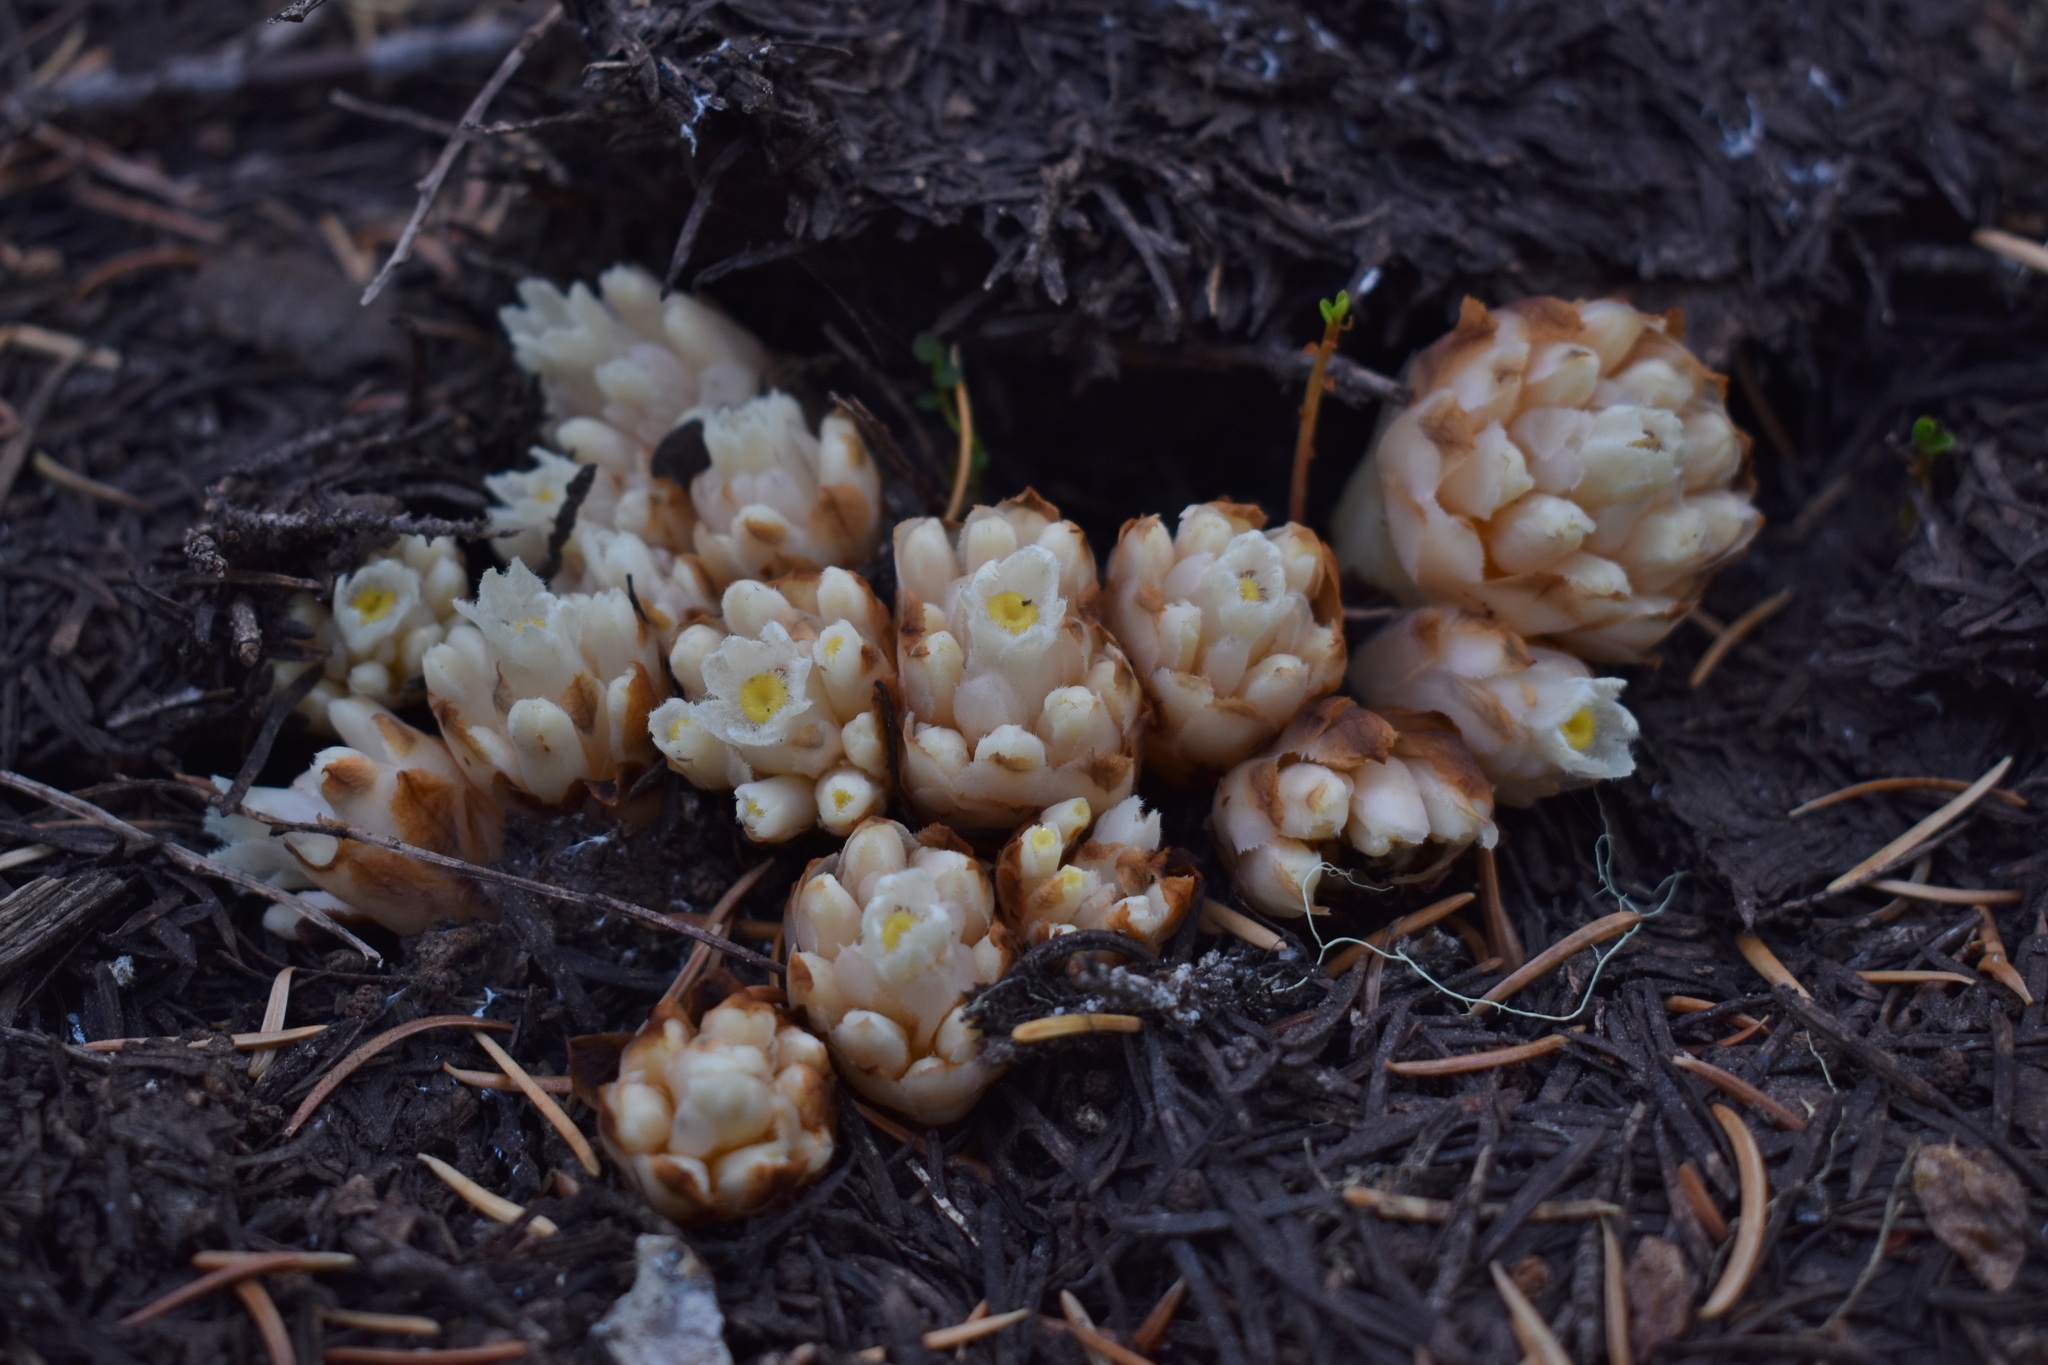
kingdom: Plantae
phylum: Tracheophyta
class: Magnoliopsida
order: Ericales
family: Ericaceae
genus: Hemitomes
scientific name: Hemitomes congestum
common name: Cone plant
